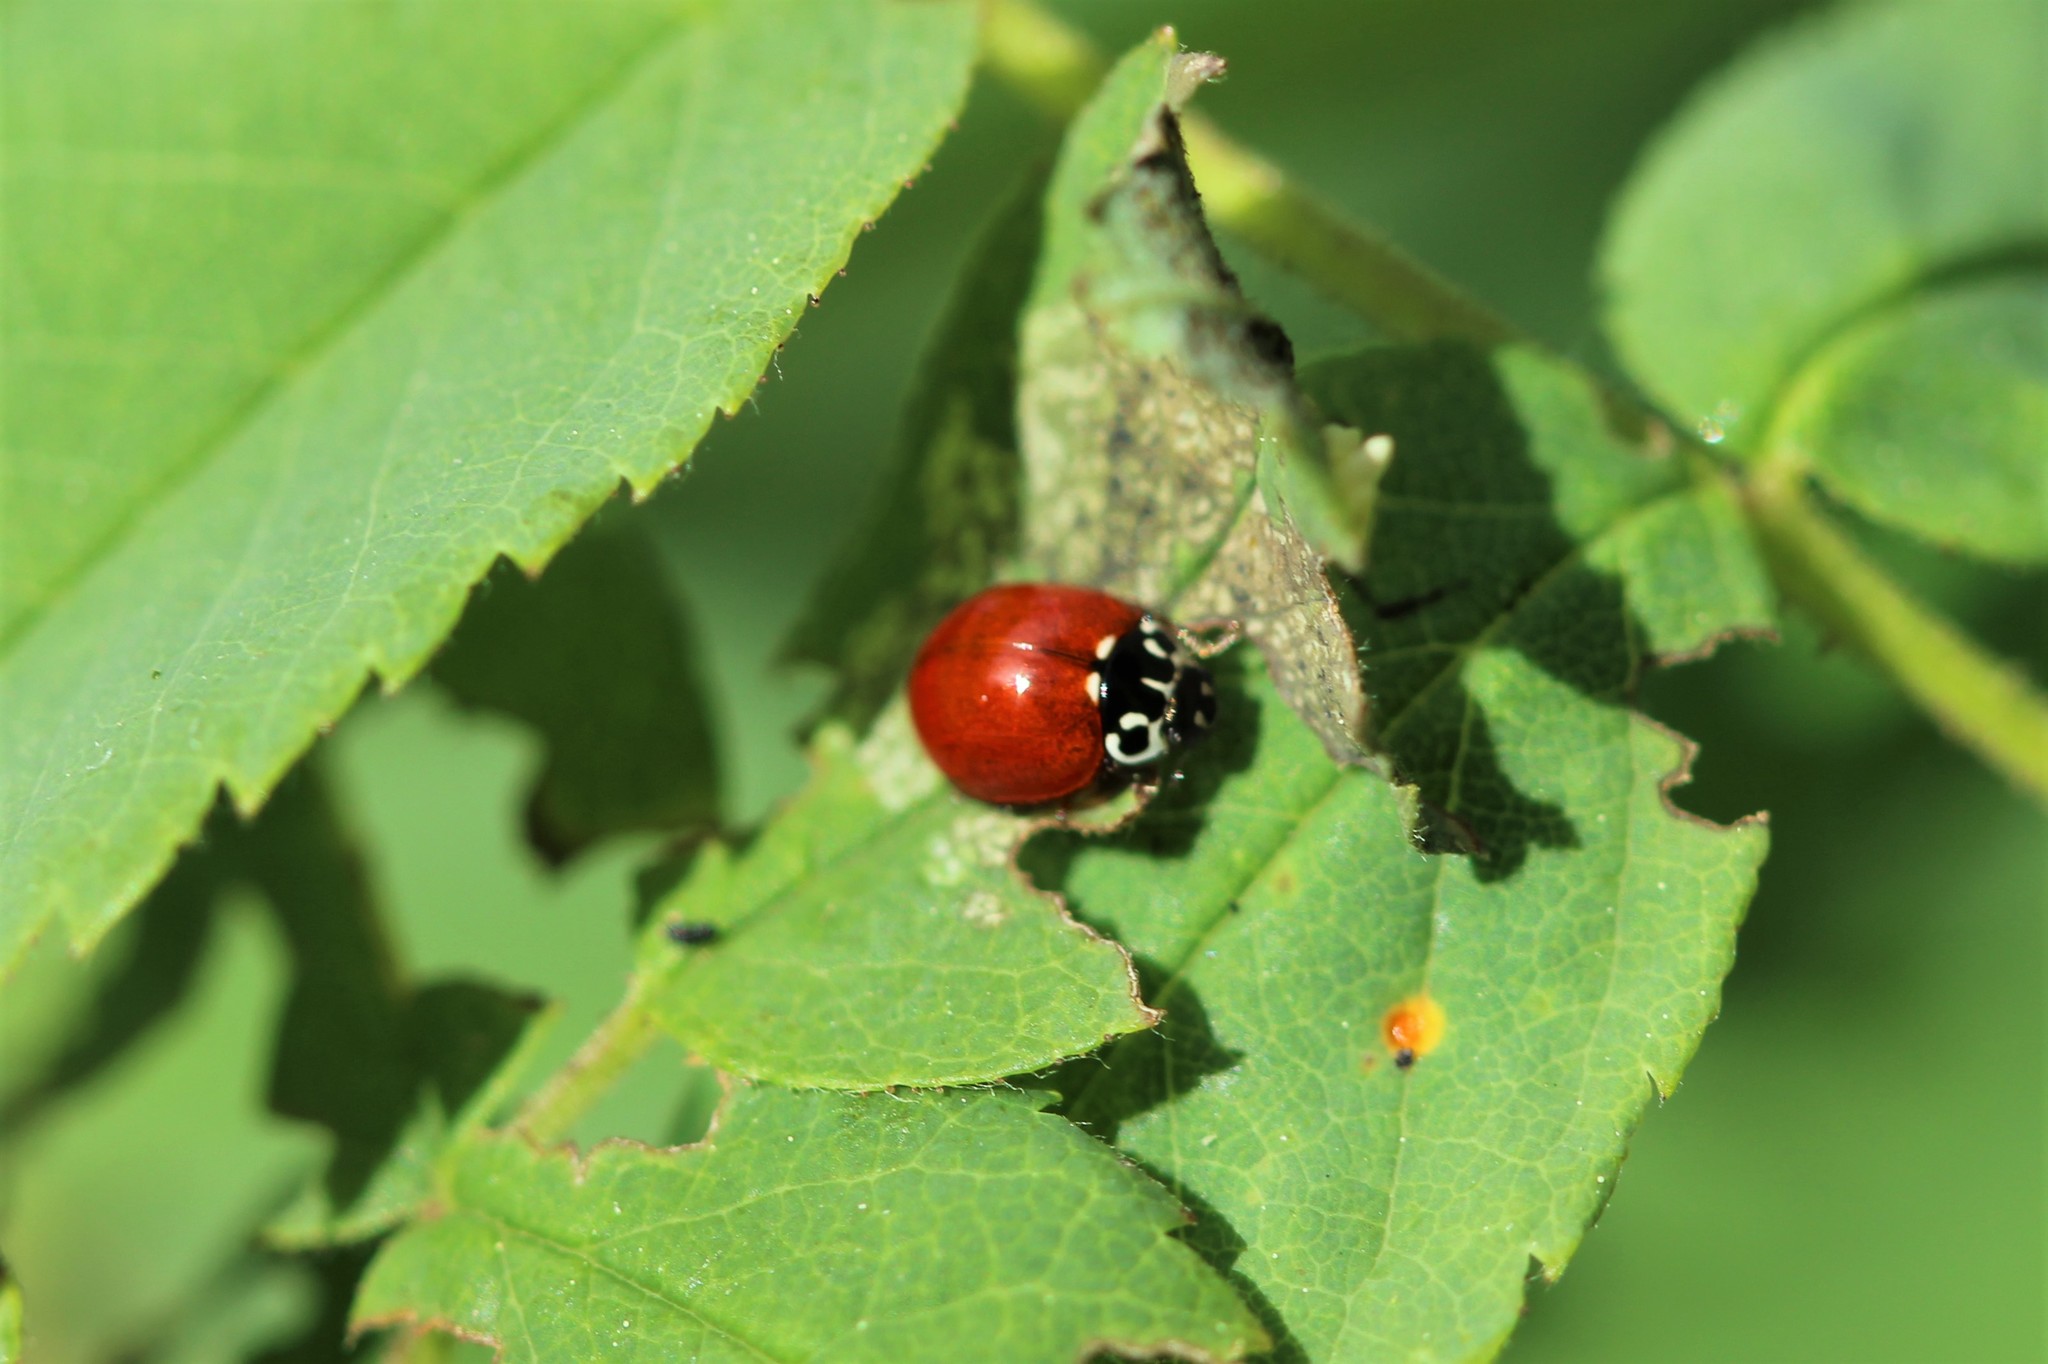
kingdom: Animalia
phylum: Arthropoda
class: Insecta
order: Coleoptera
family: Coccinellidae
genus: Cycloneda
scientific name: Cycloneda polita
